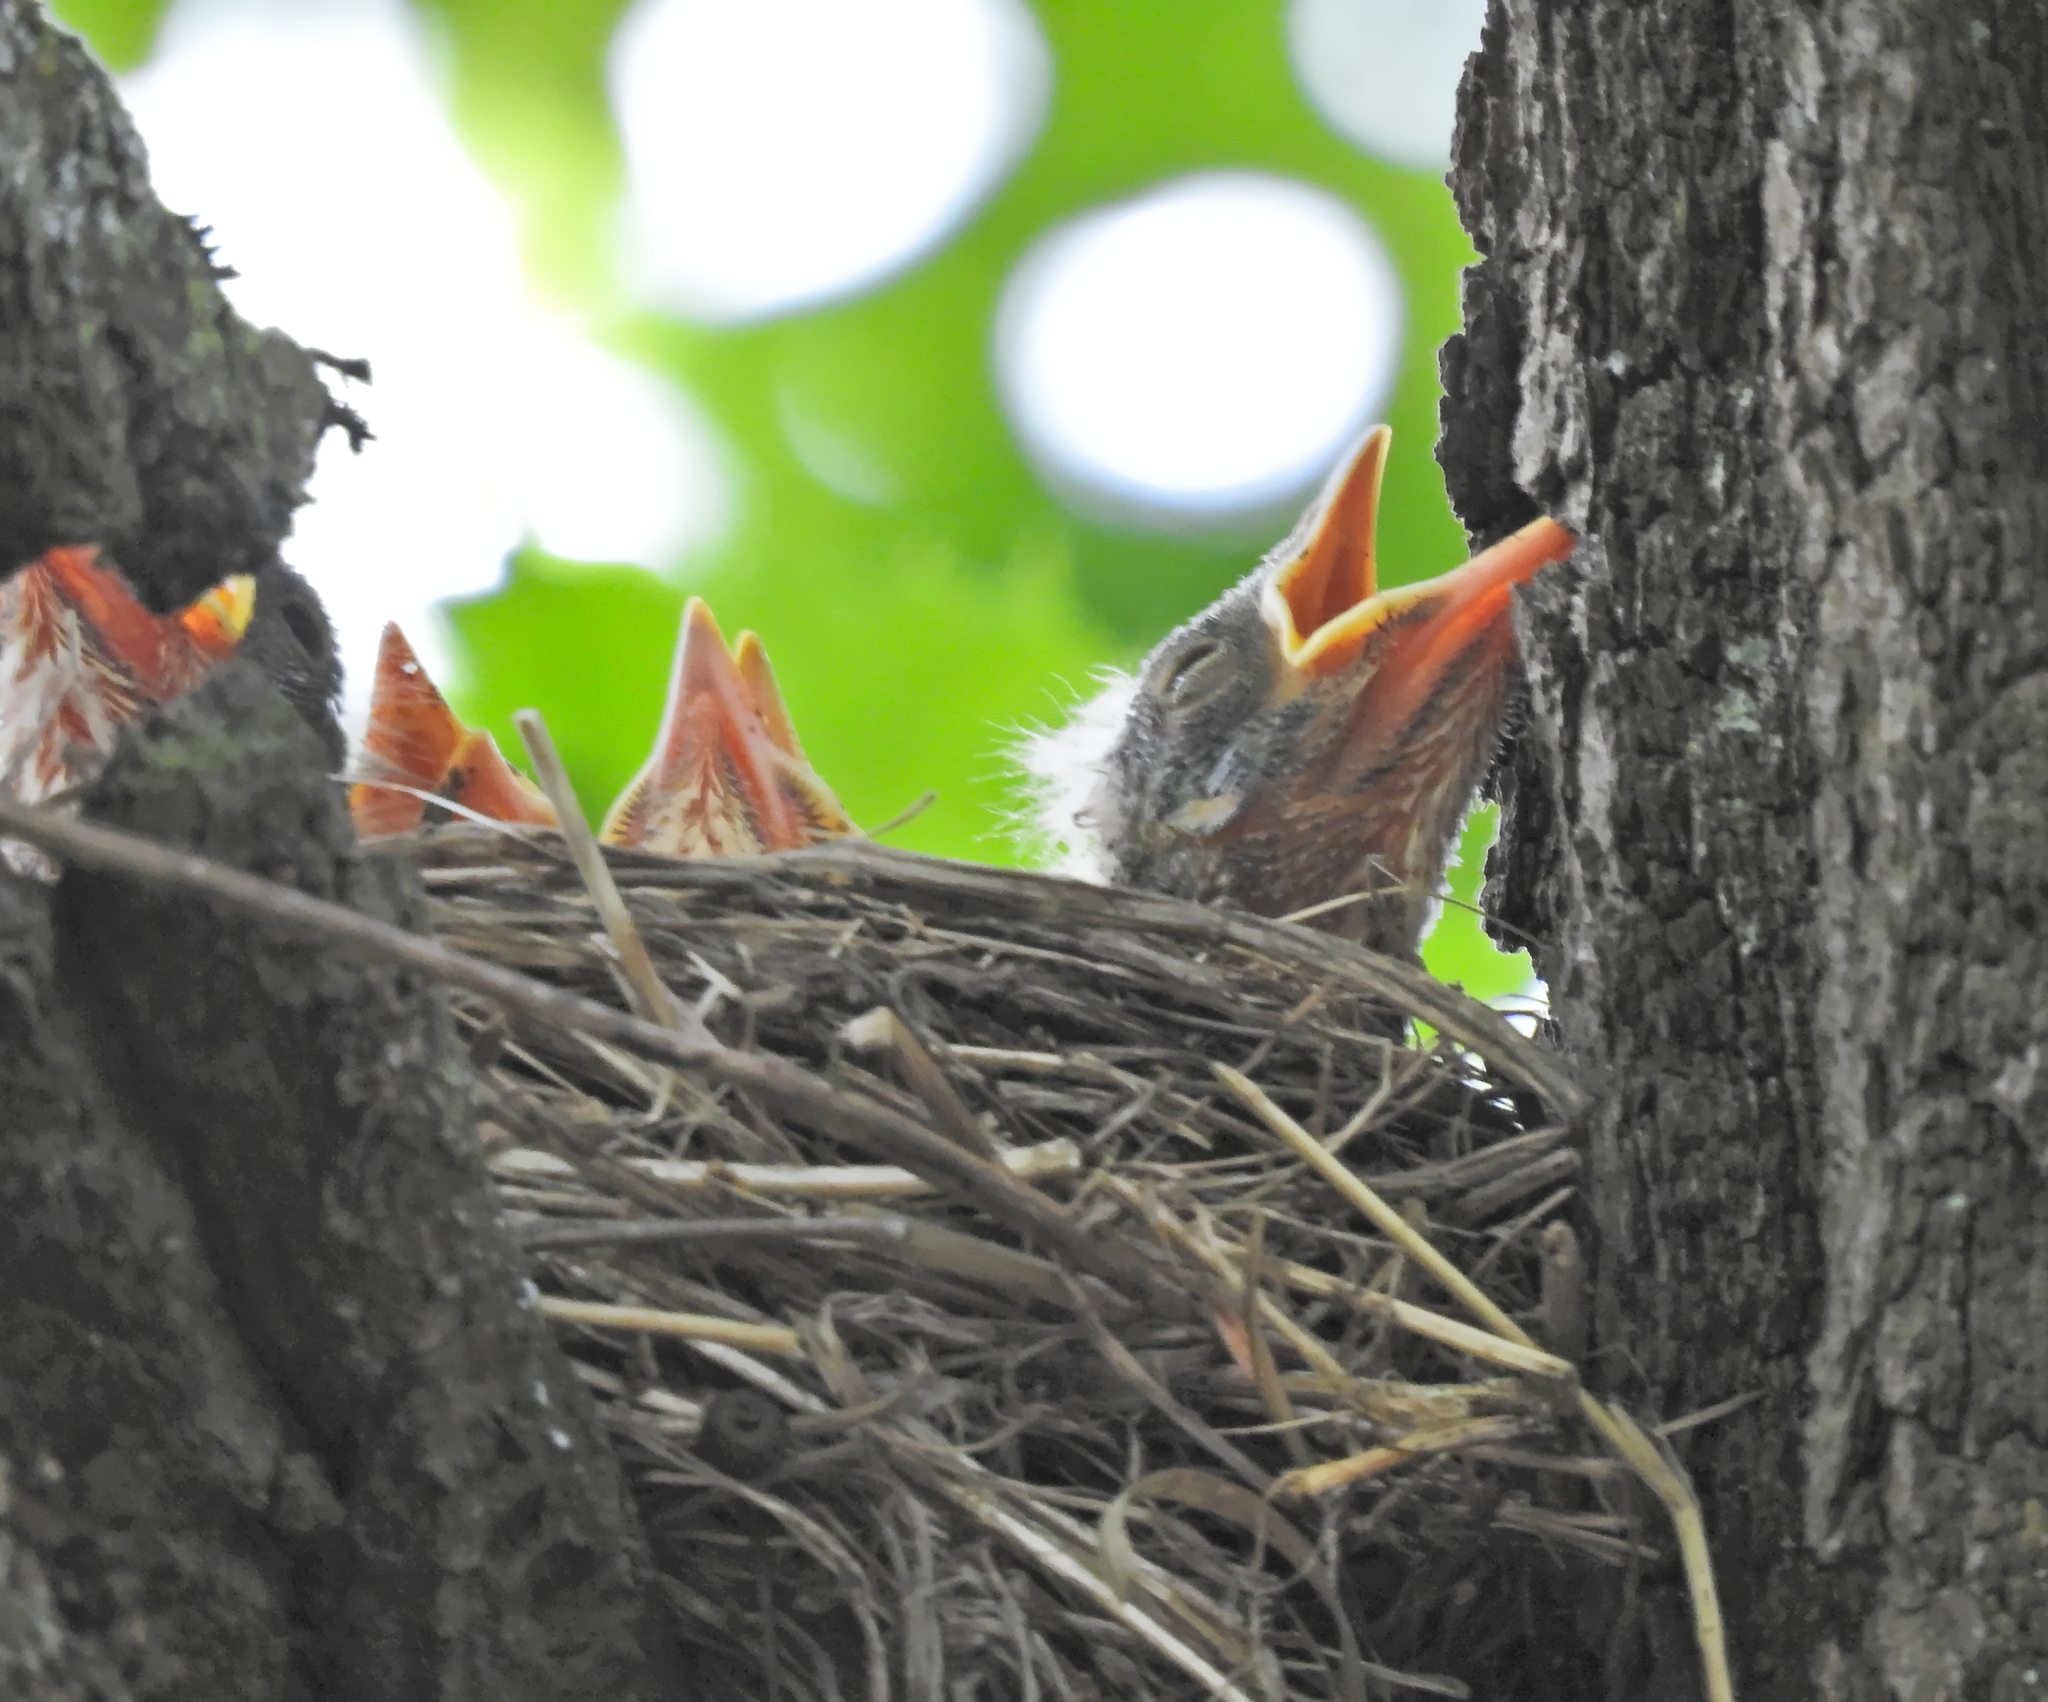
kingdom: Animalia
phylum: Chordata
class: Aves
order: Passeriformes
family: Turdidae
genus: Turdus
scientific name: Turdus pilaris
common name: Fieldfare
